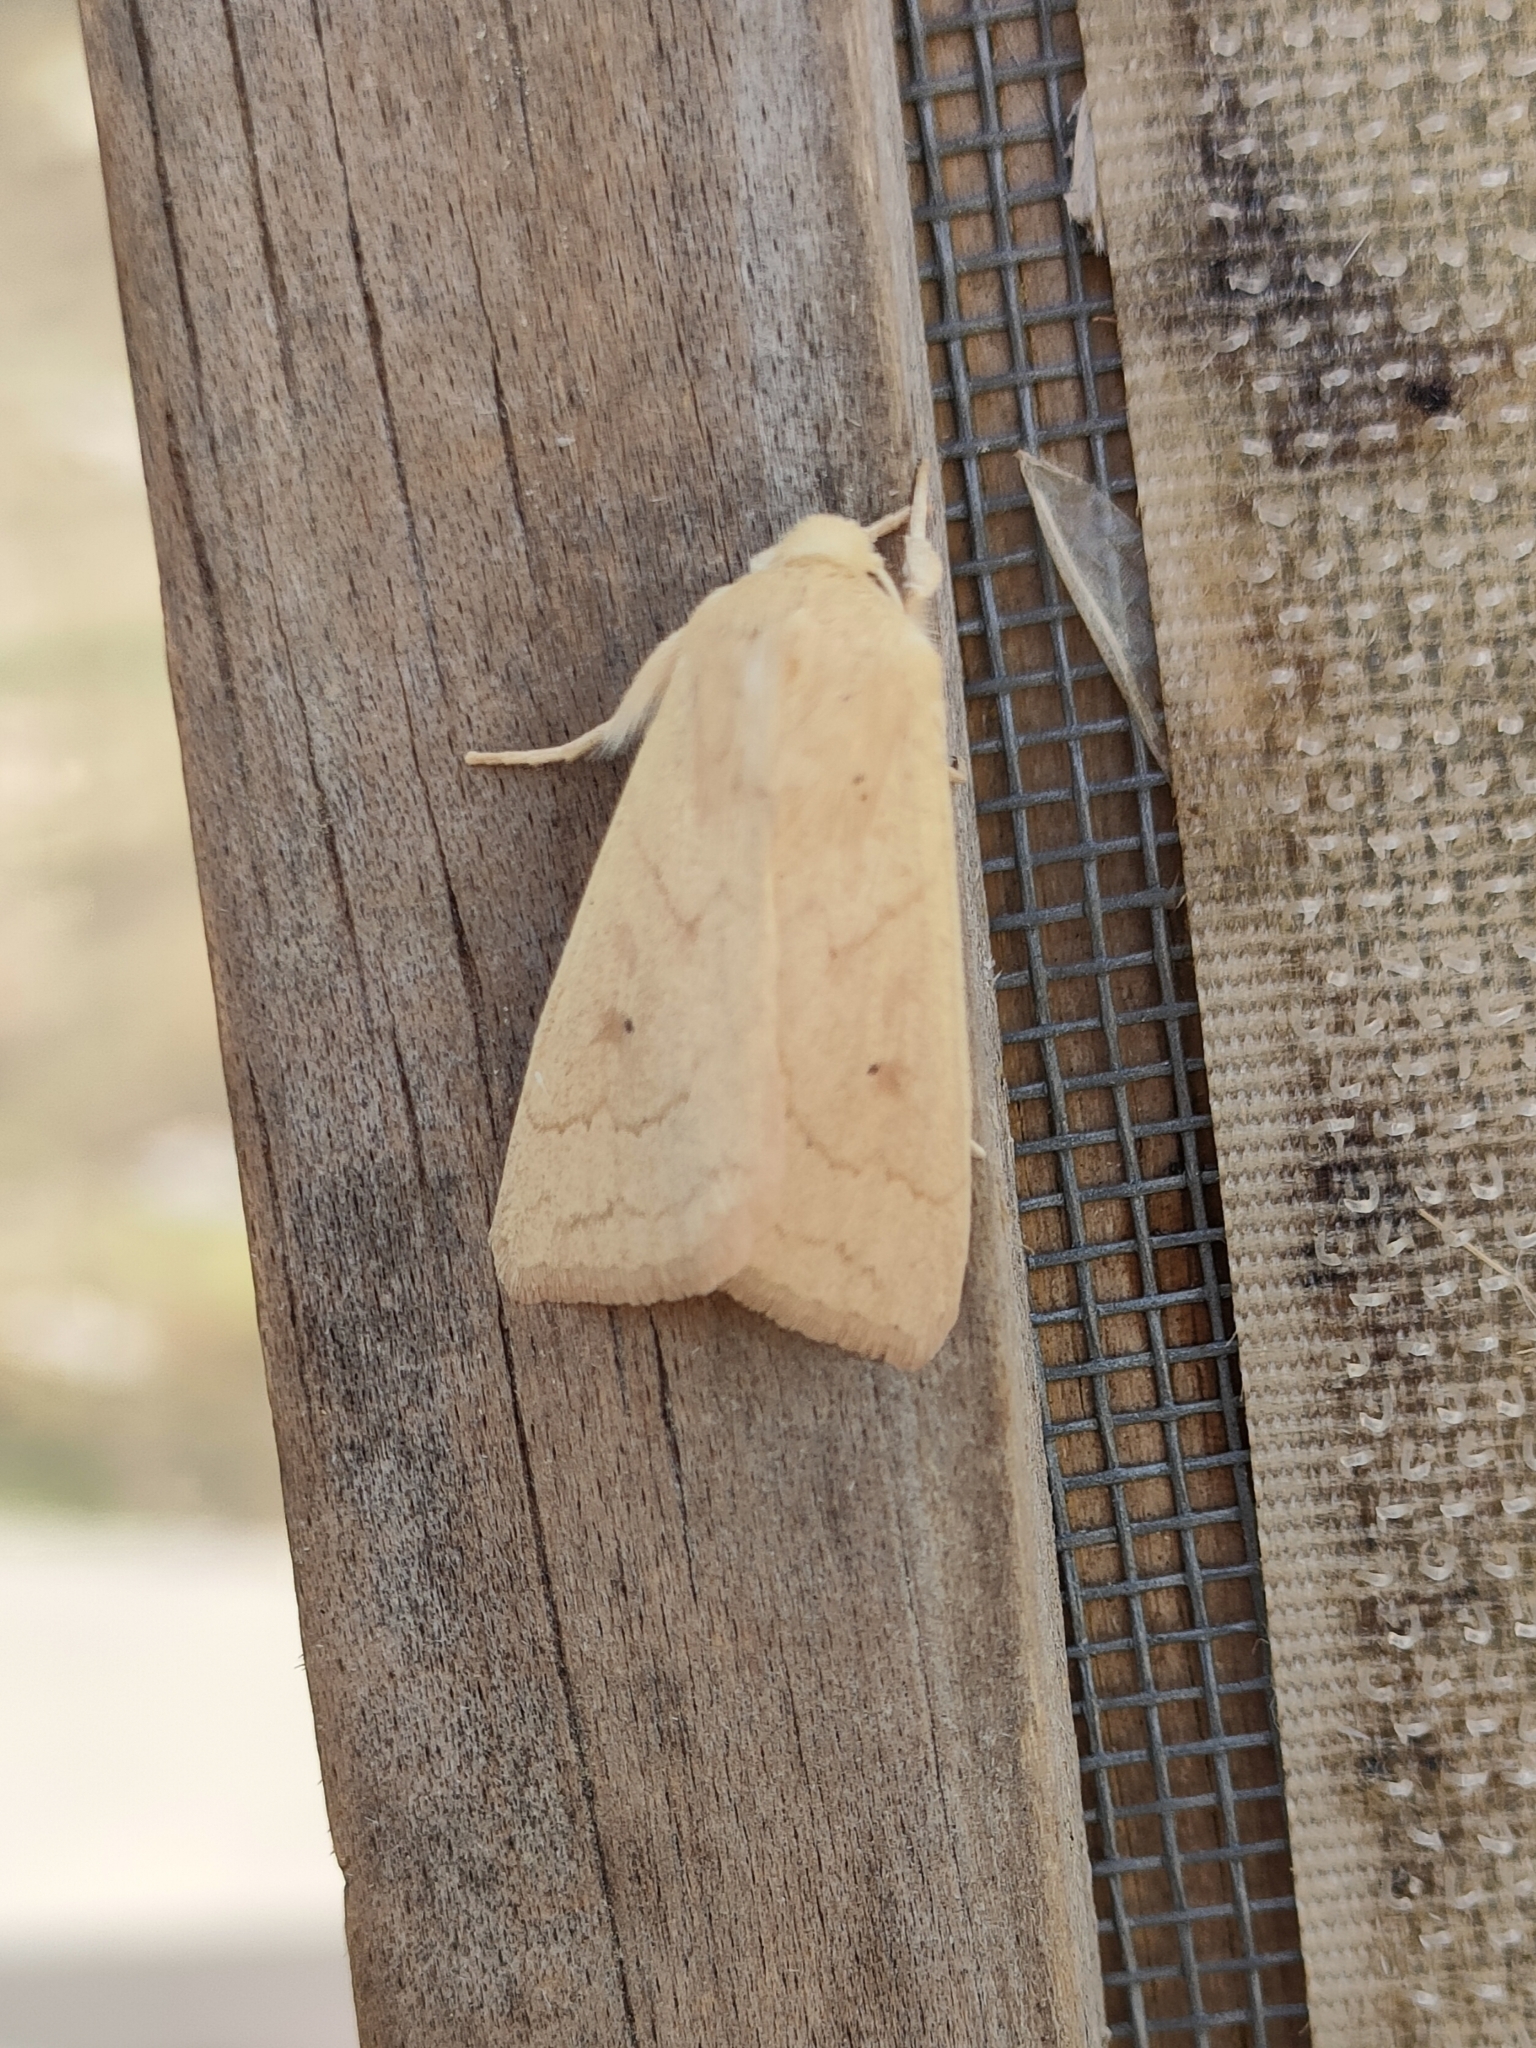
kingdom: Animalia
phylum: Arthropoda
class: Insecta
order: Lepidoptera
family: Noctuidae
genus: Mythimna
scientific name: Mythimna vitellina
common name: Delicate
